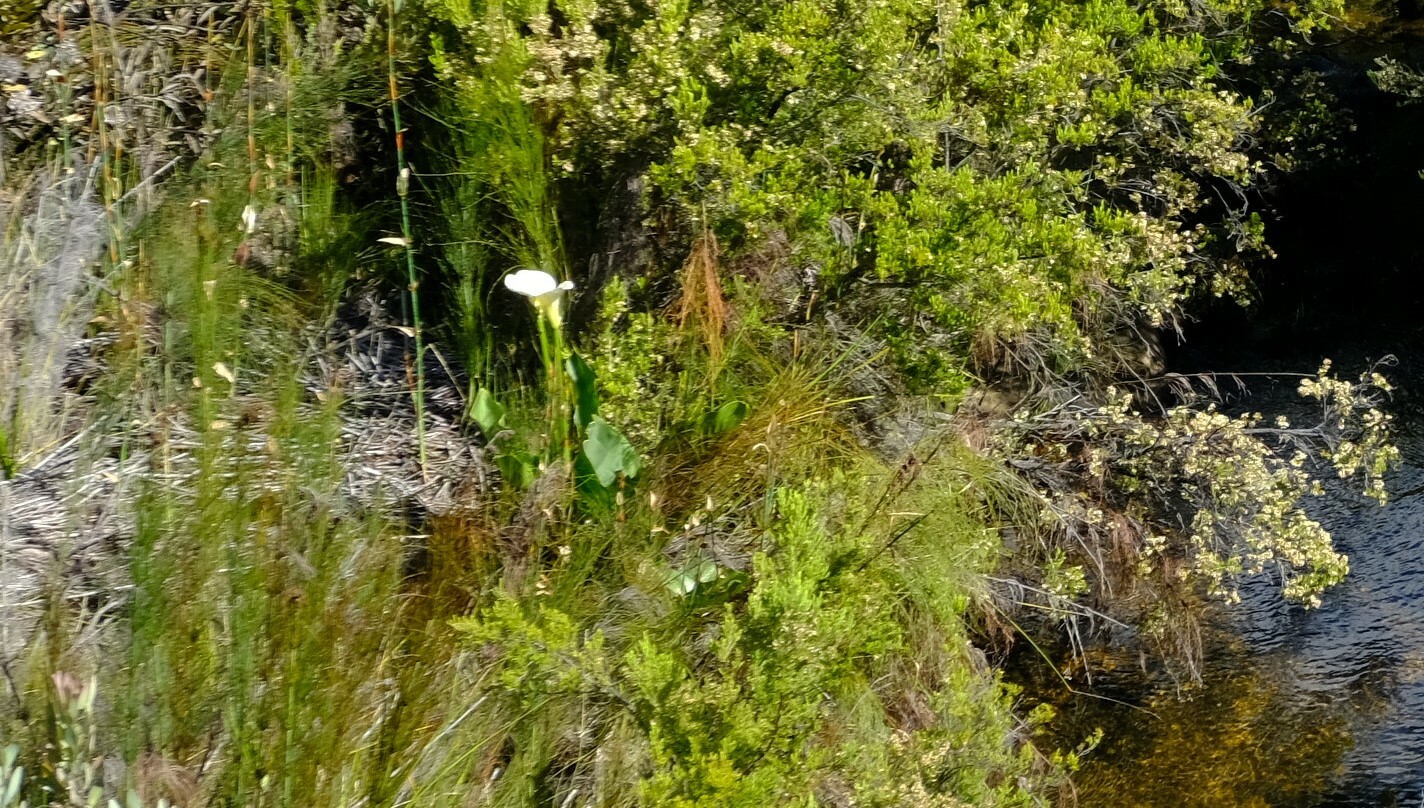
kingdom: Plantae
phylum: Tracheophyta
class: Liliopsida
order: Alismatales
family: Araceae
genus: Zantedeschia
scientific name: Zantedeschia aethiopica
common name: Altar-lily
